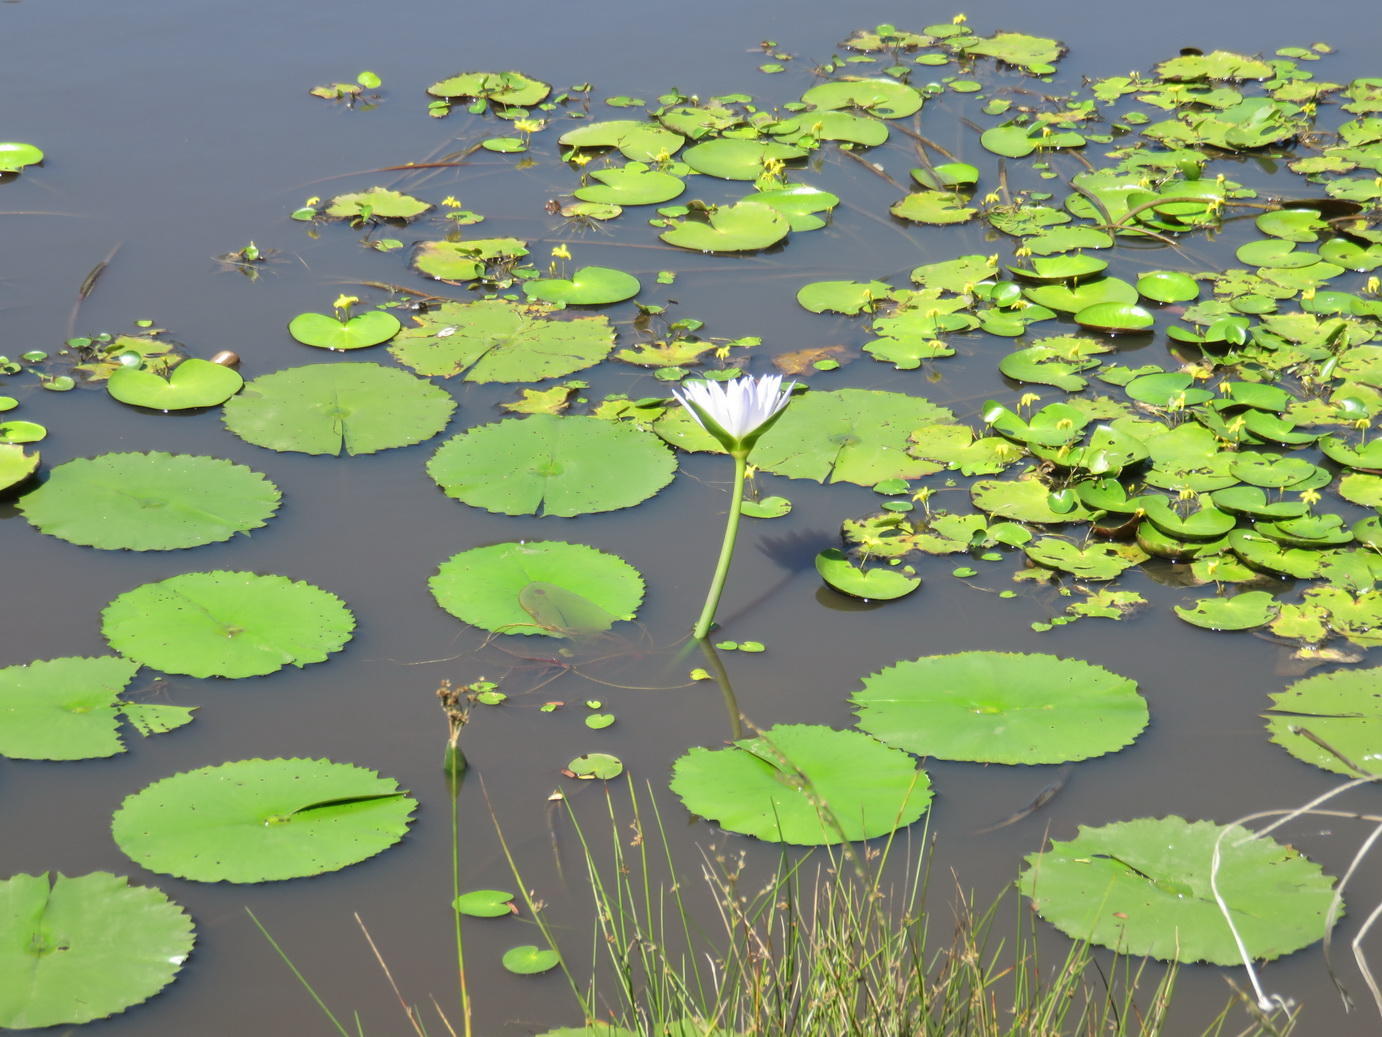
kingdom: Plantae
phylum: Tracheophyta
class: Magnoliopsida
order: Nymphaeales
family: Nymphaeaceae
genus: Nymphaea
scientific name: Nymphaea nouchali
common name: Blue lotus
